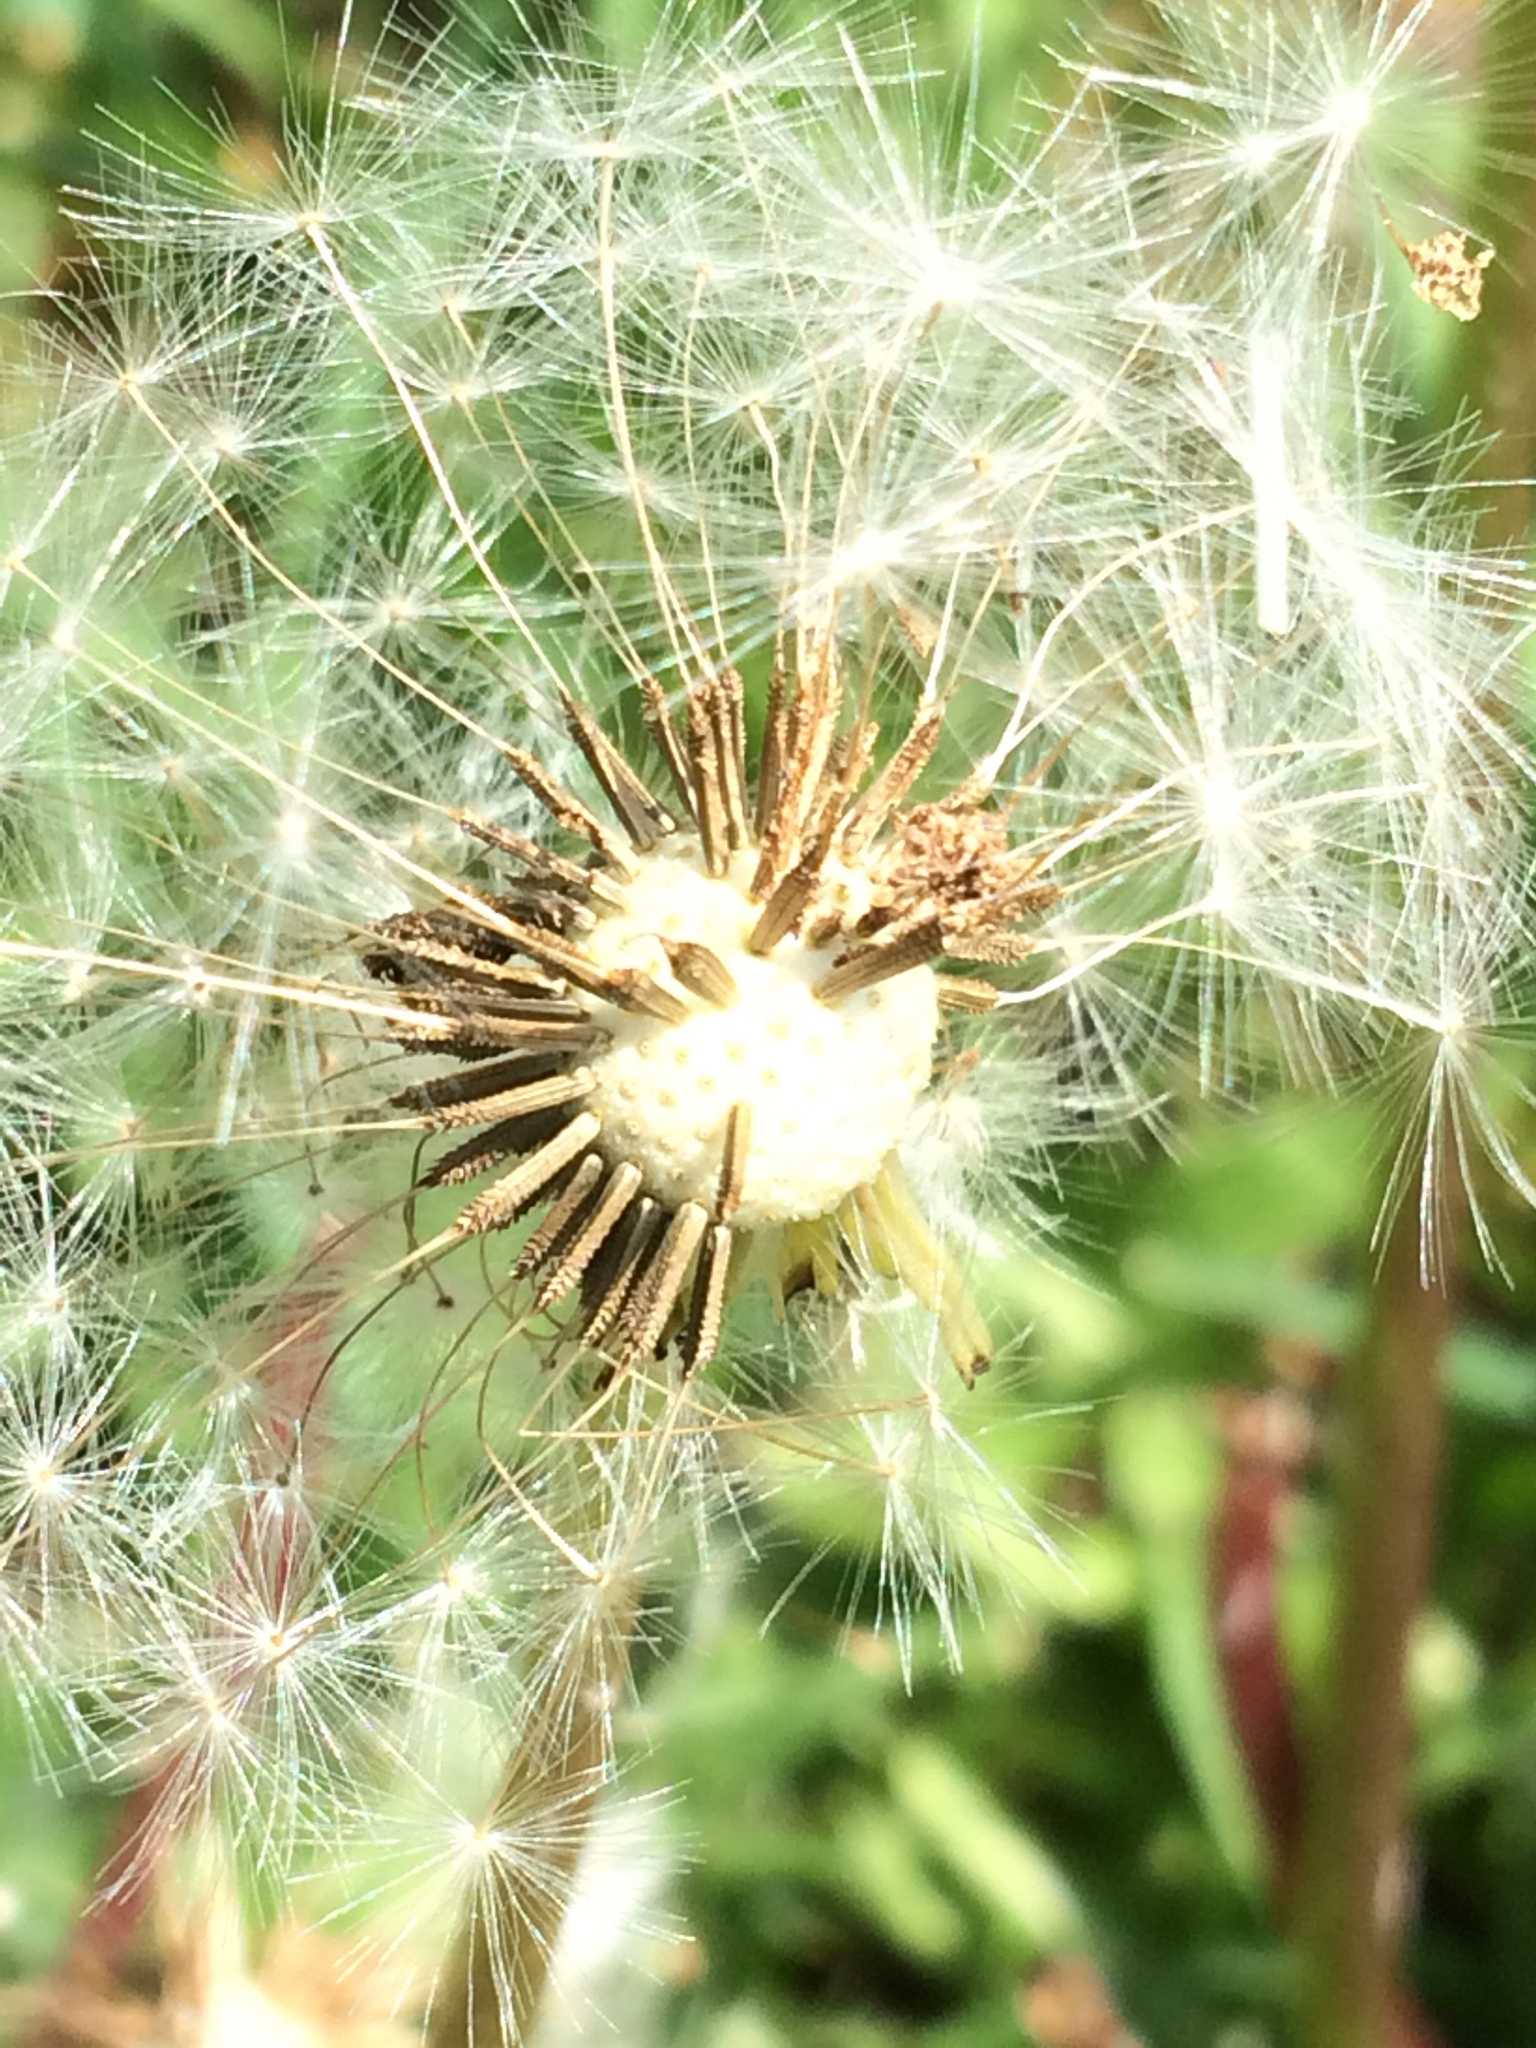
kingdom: Plantae
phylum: Tracheophyta
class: Magnoliopsida
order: Asterales
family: Asteraceae
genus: Taraxacum
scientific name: Taraxacum officinale
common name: Common dandelion
